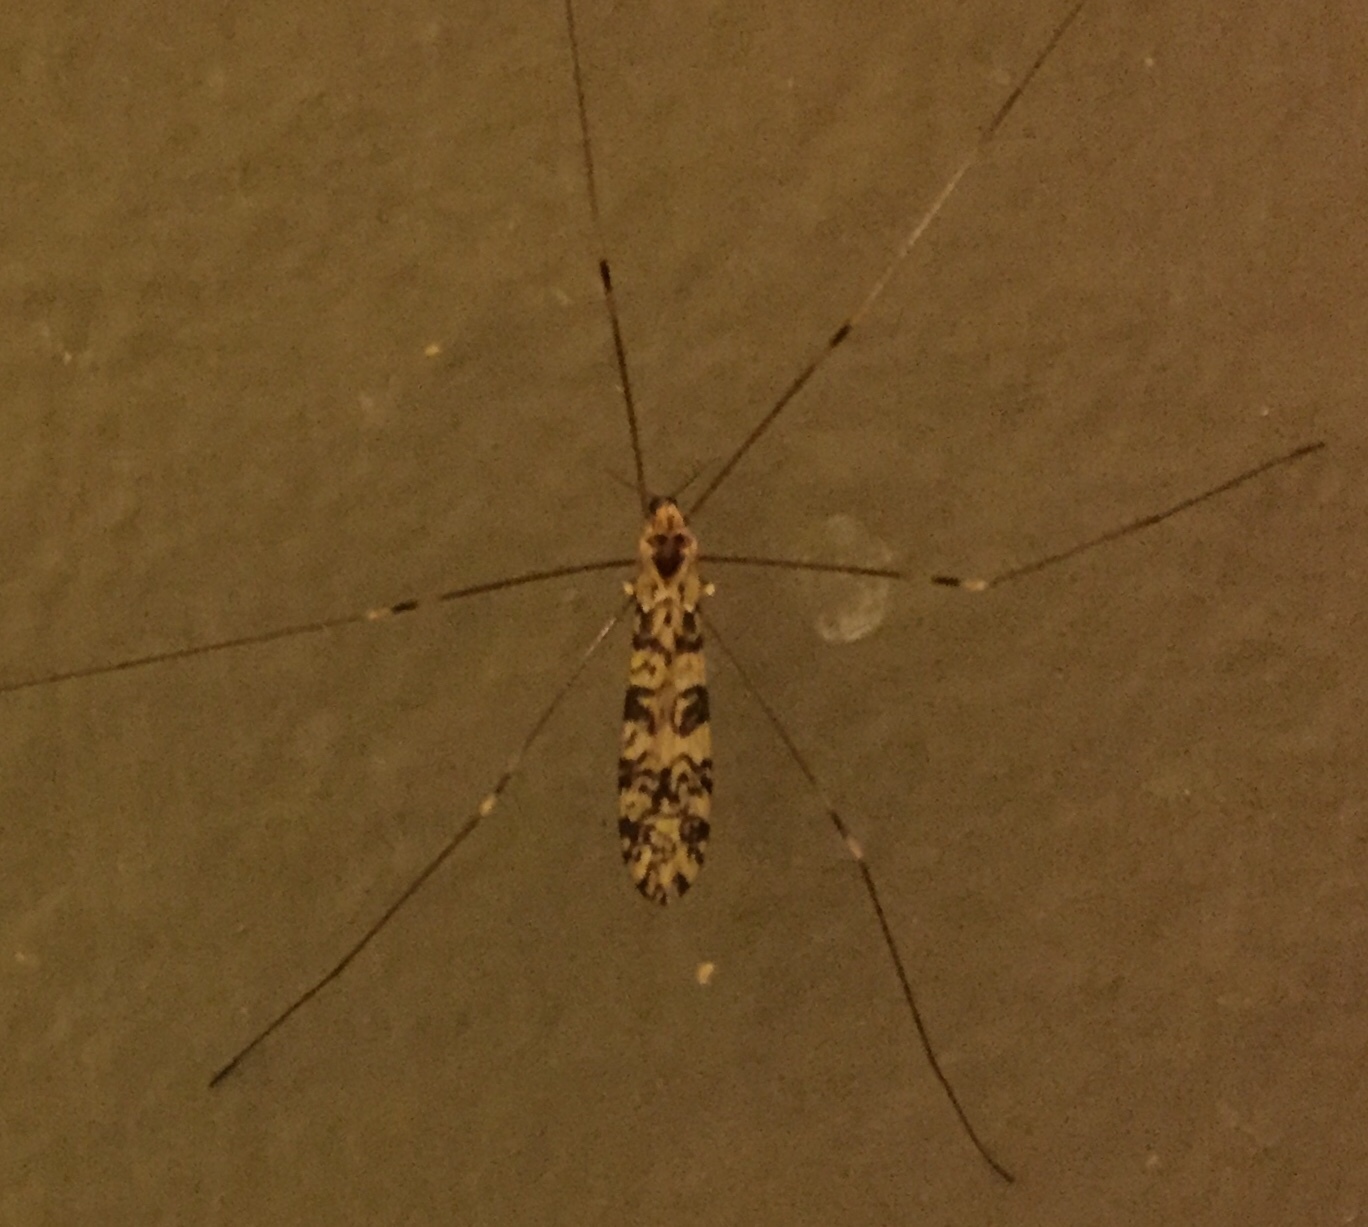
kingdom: Animalia
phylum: Arthropoda
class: Insecta
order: Diptera
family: Limoniidae
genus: Limonia
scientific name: Limonia annulata
